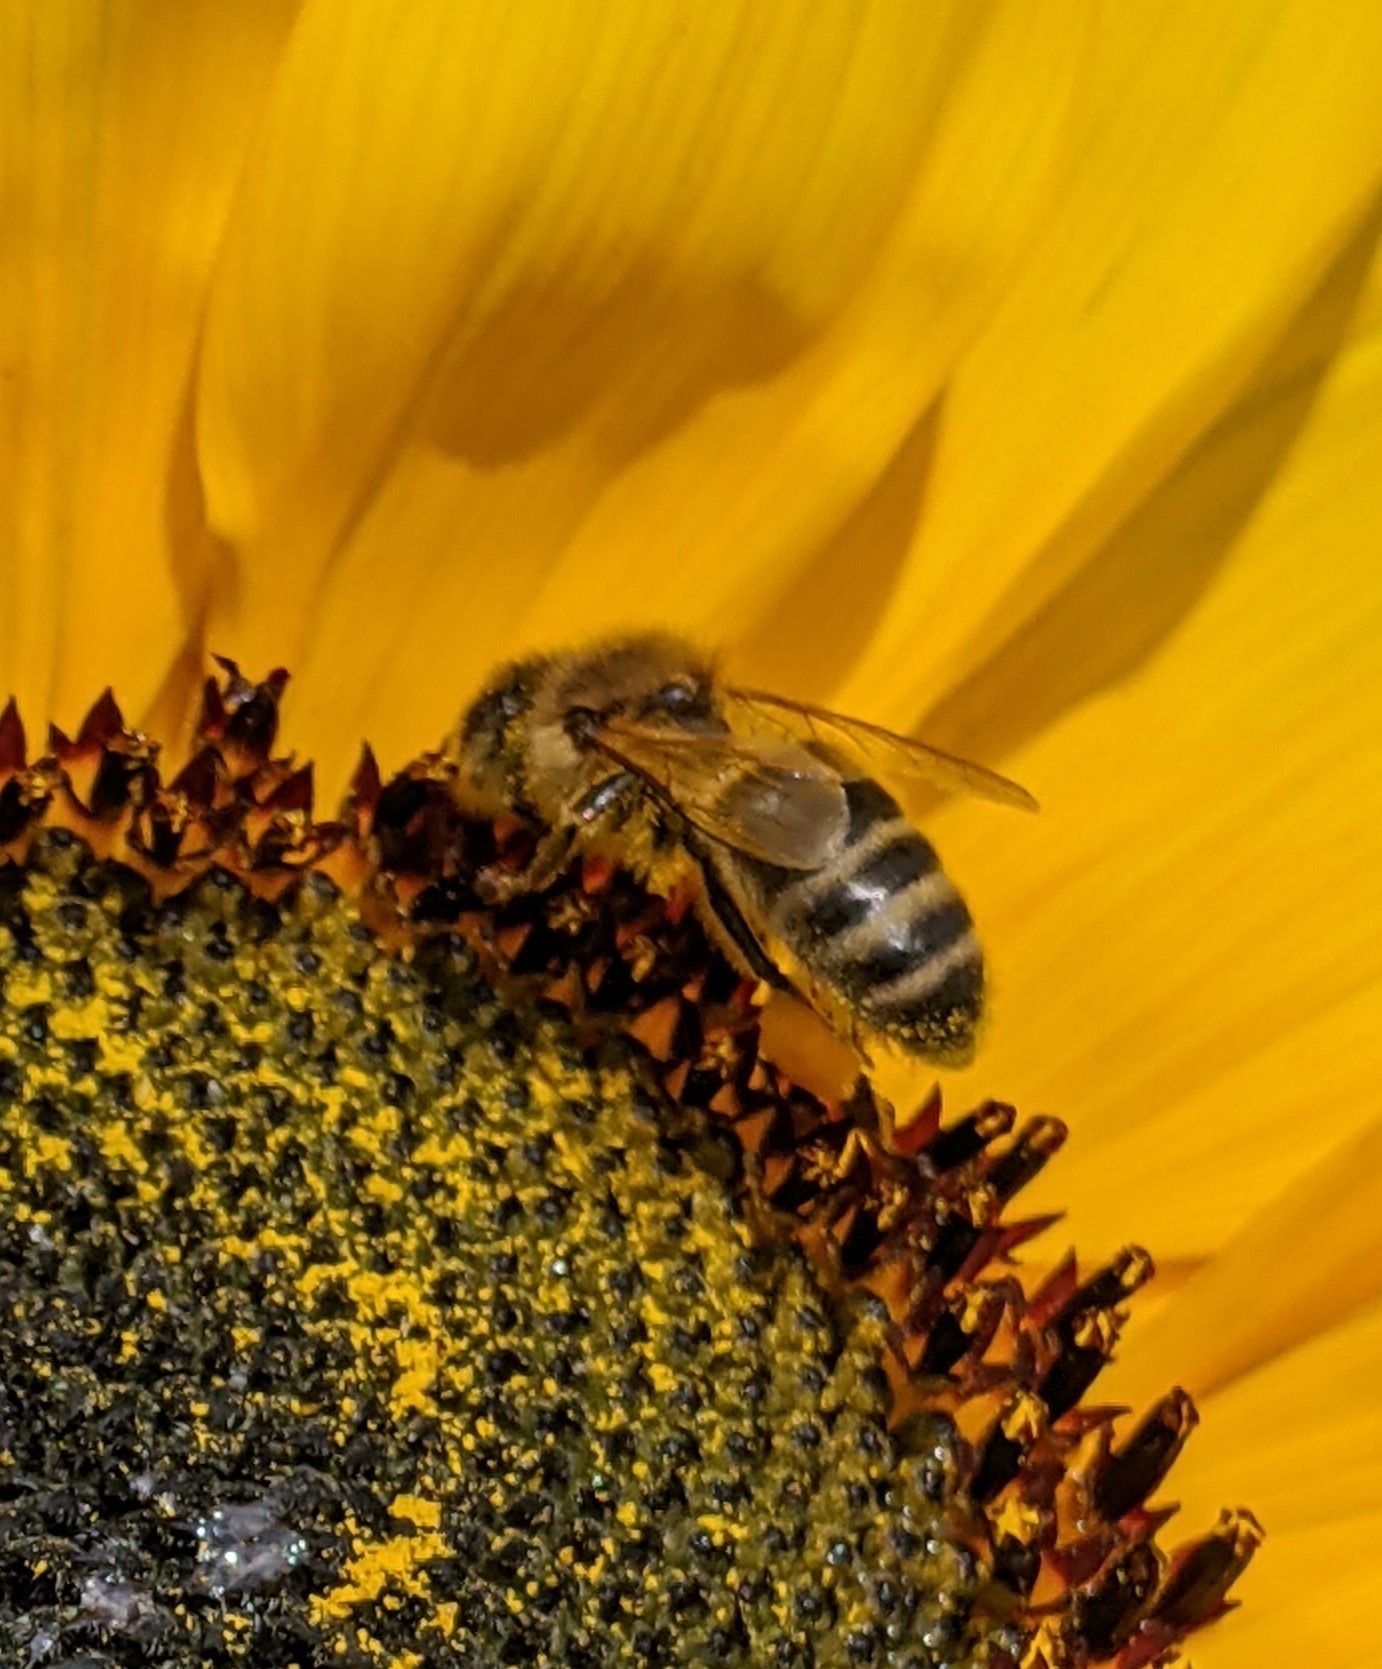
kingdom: Animalia
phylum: Arthropoda
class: Insecta
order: Hymenoptera
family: Apidae
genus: Apis
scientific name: Apis mellifera
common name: Honey bee
